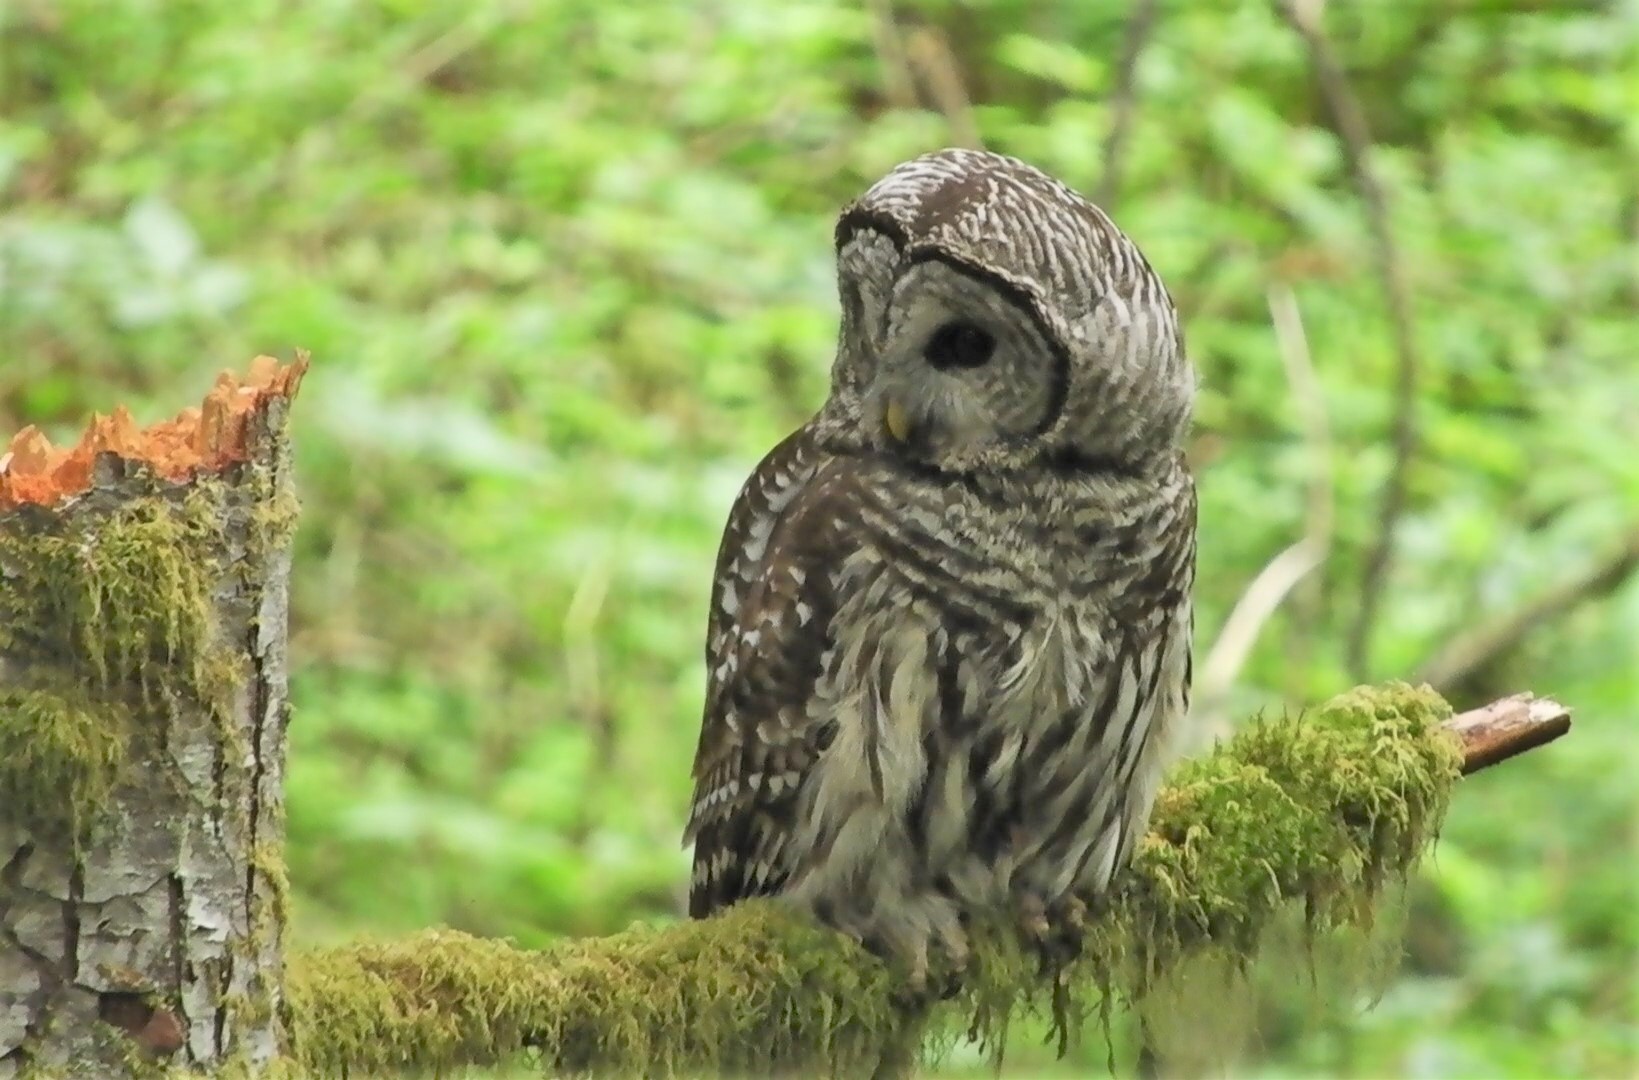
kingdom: Animalia
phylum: Chordata
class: Aves
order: Strigiformes
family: Strigidae
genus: Strix
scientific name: Strix varia
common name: Barred owl
